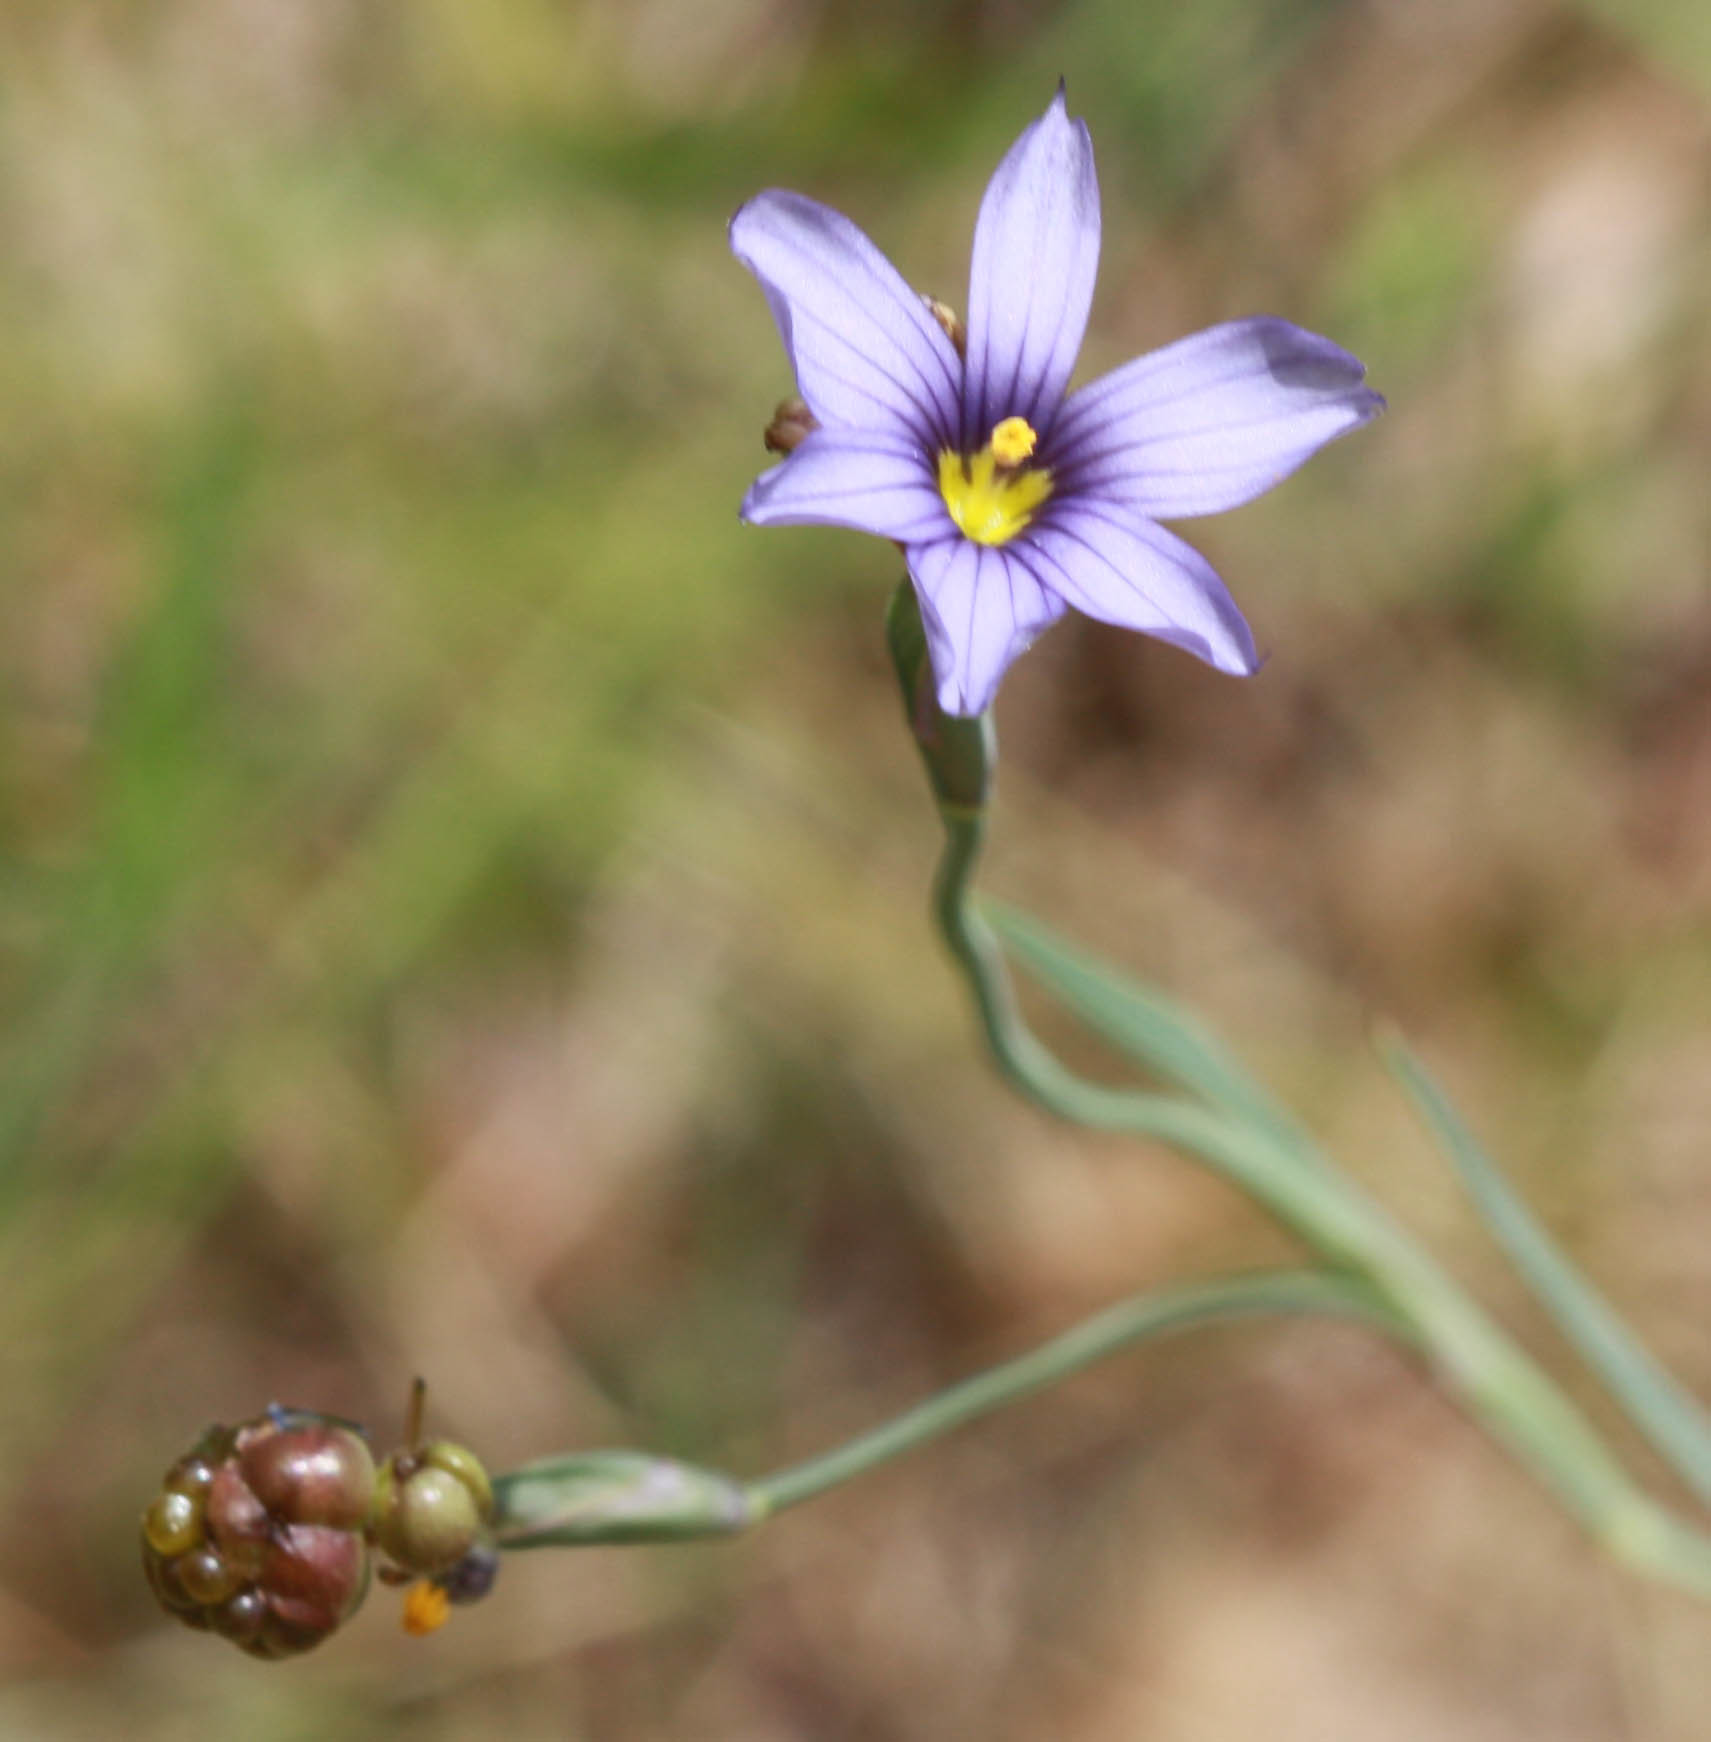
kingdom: Plantae
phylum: Tracheophyta
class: Liliopsida
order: Asparagales
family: Iridaceae
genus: Sisyrinchium
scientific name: Sisyrinchium bellum
